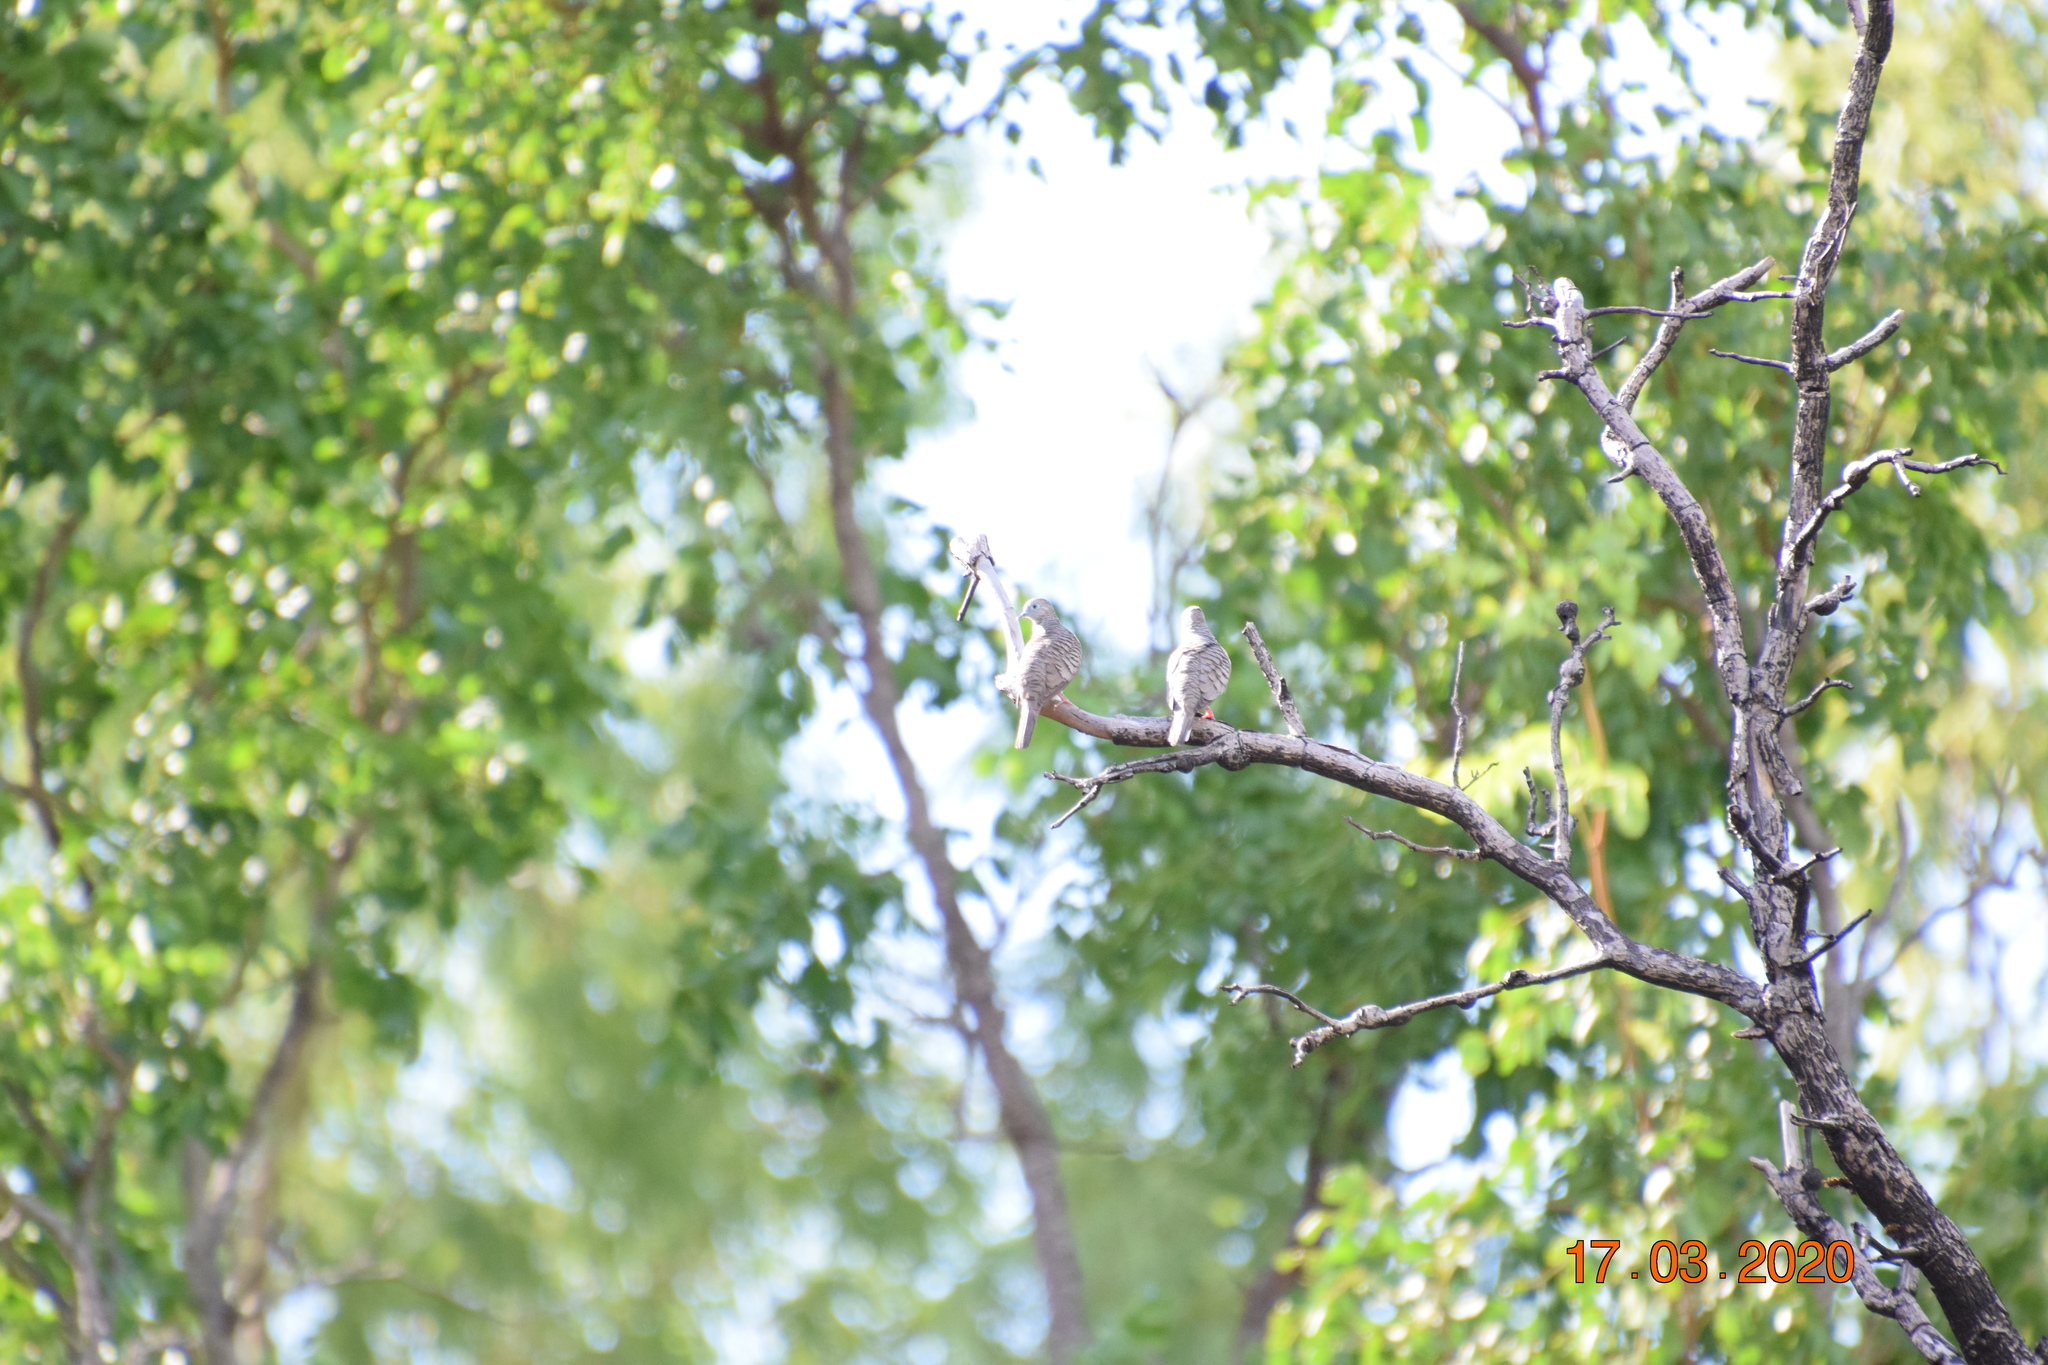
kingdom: Animalia
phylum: Chordata
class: Aves
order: Columbiformes
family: Columbidae
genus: Geopelia
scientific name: Geopelia placida
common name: Peaceful dove
